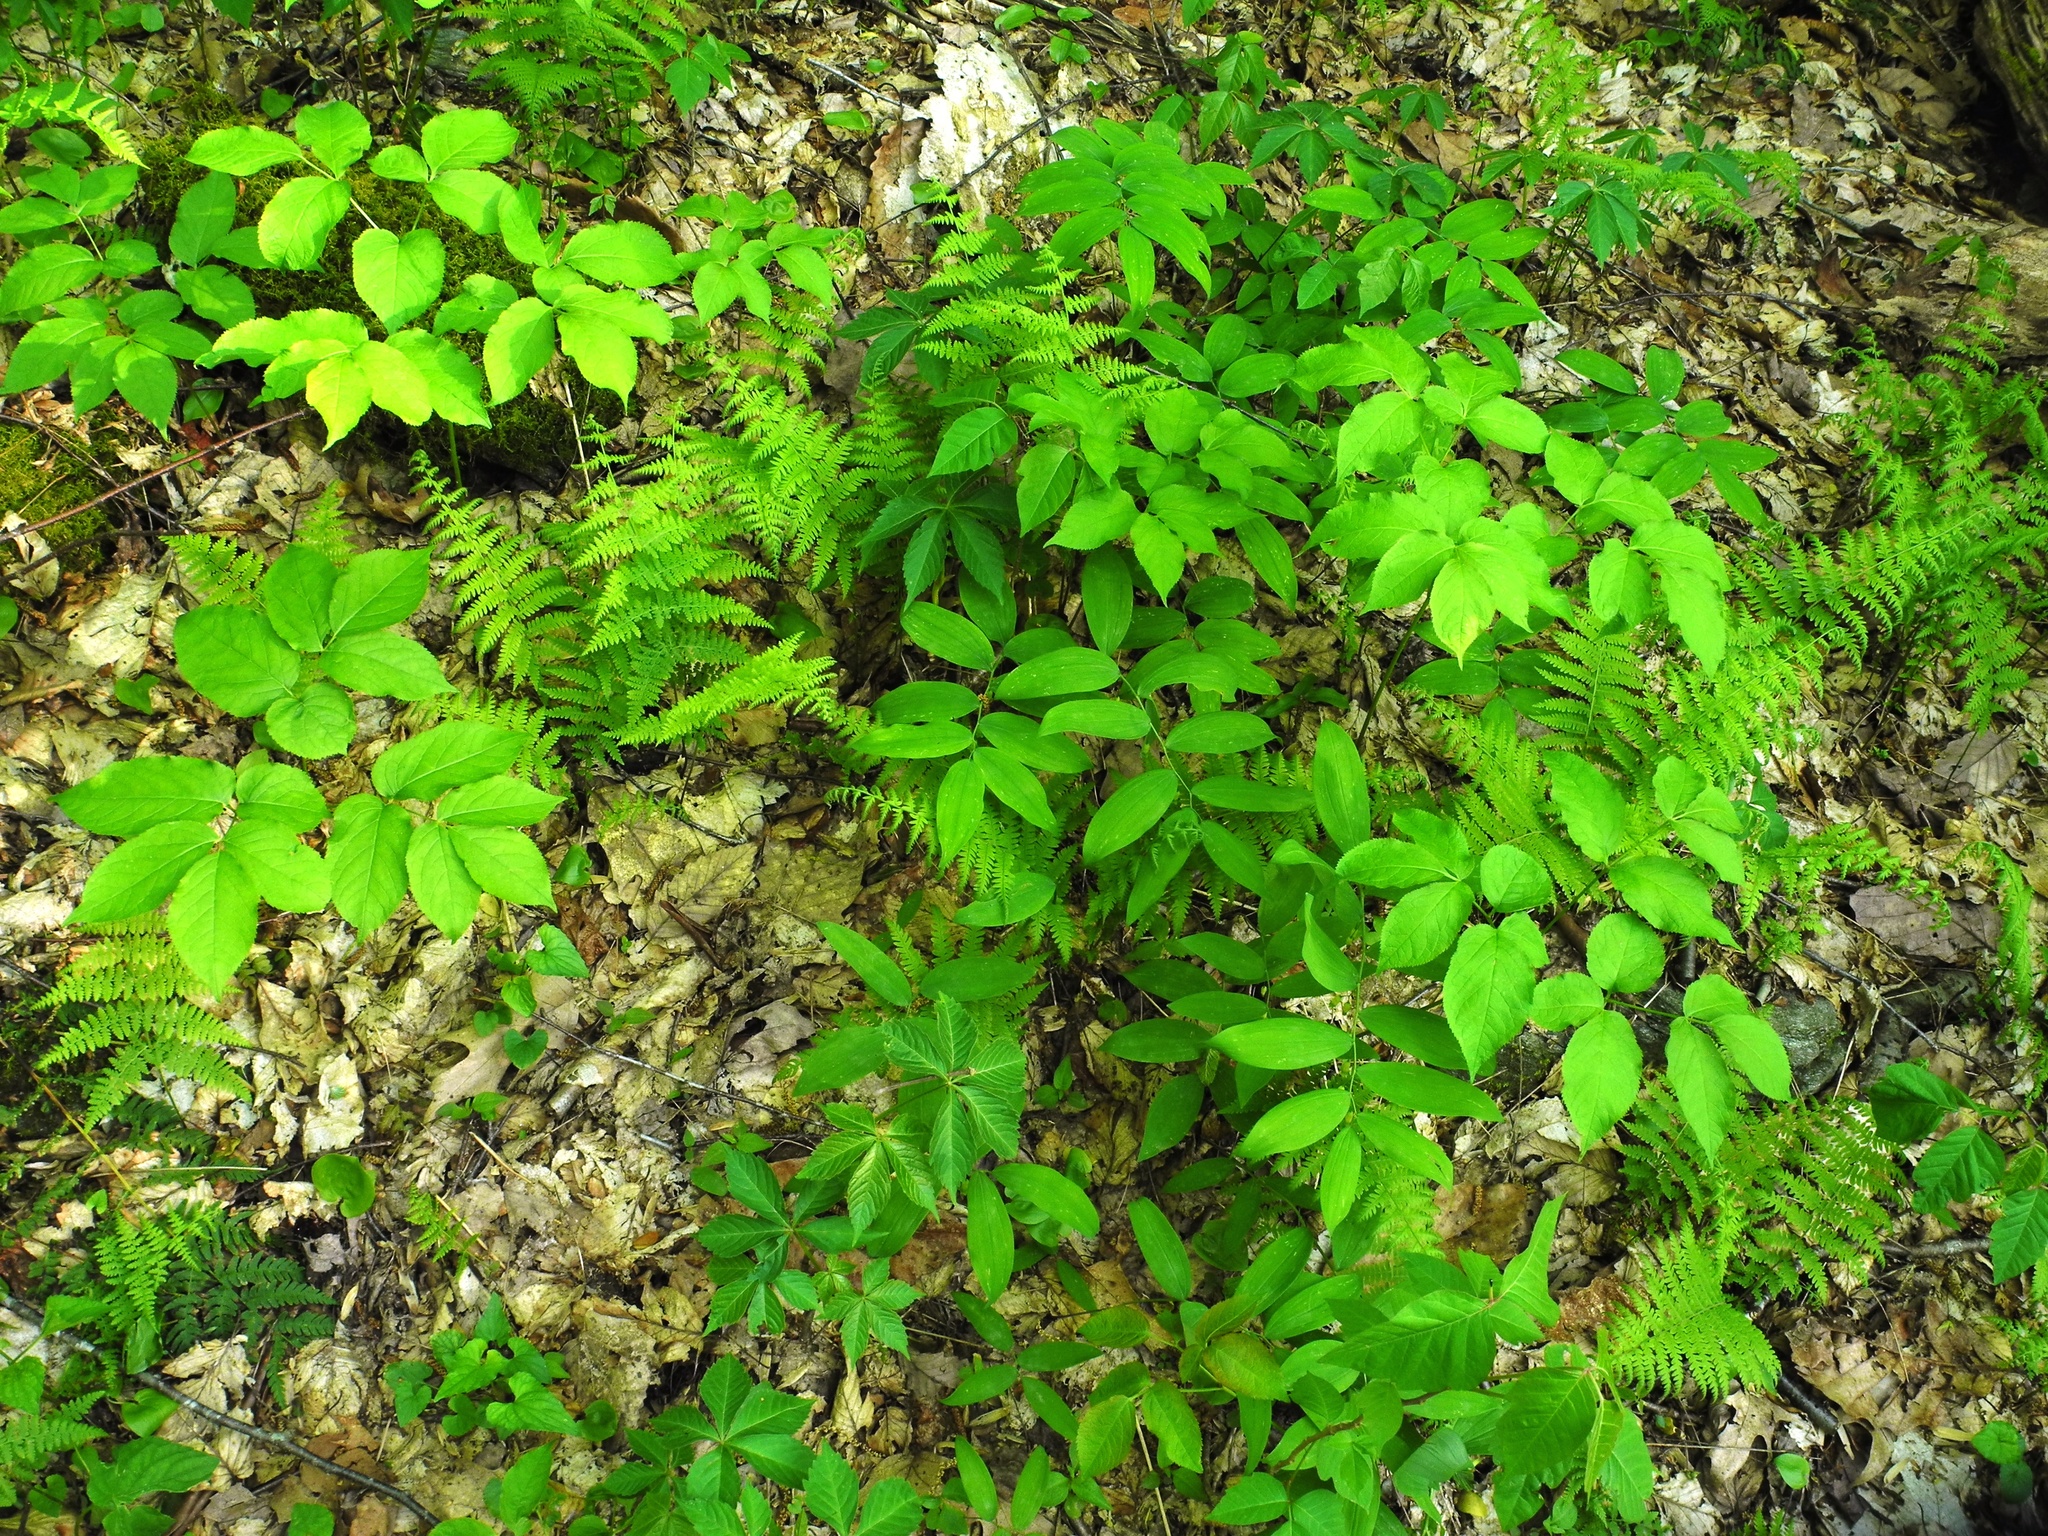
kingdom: Plantae
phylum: Tracheophyta
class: Magnoliopsida
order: Vitales
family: Vitaceae
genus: Parthenocissus
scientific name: Parthenocissus quinquefolia
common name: Virginia-creeper
